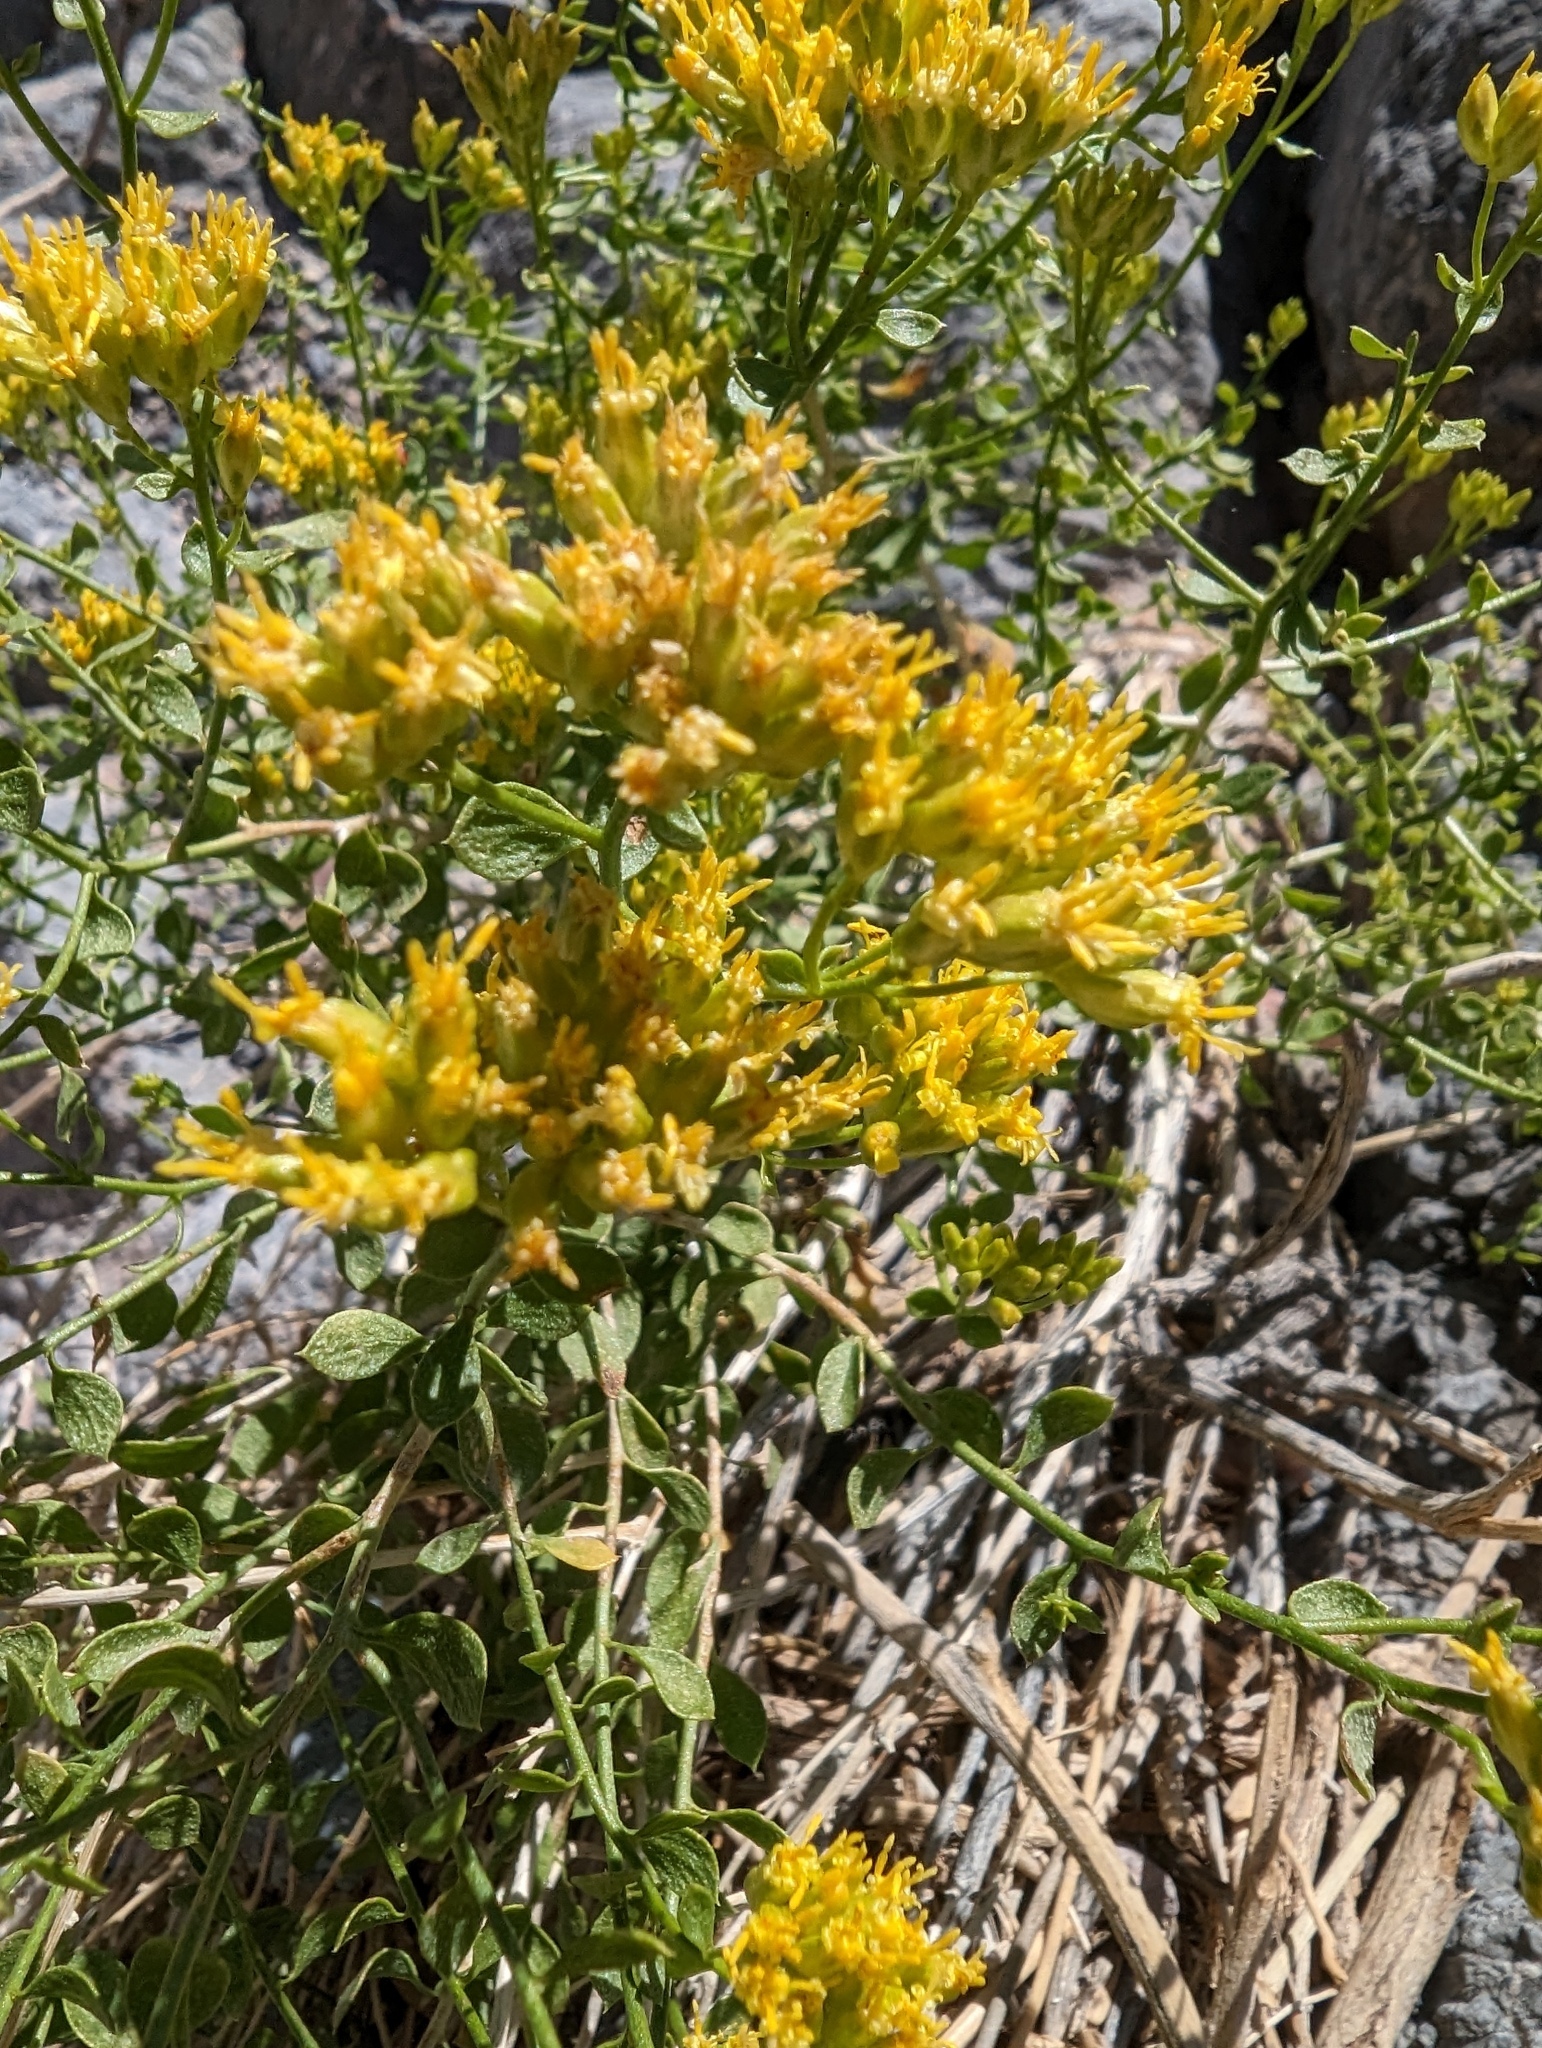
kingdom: Plantae
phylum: Tracheophyta
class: Magnoliopsida
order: Asterales
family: Asteraceae
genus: Amphipappus
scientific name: Amphipappus fremontii
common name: Fremont's chaffbush
